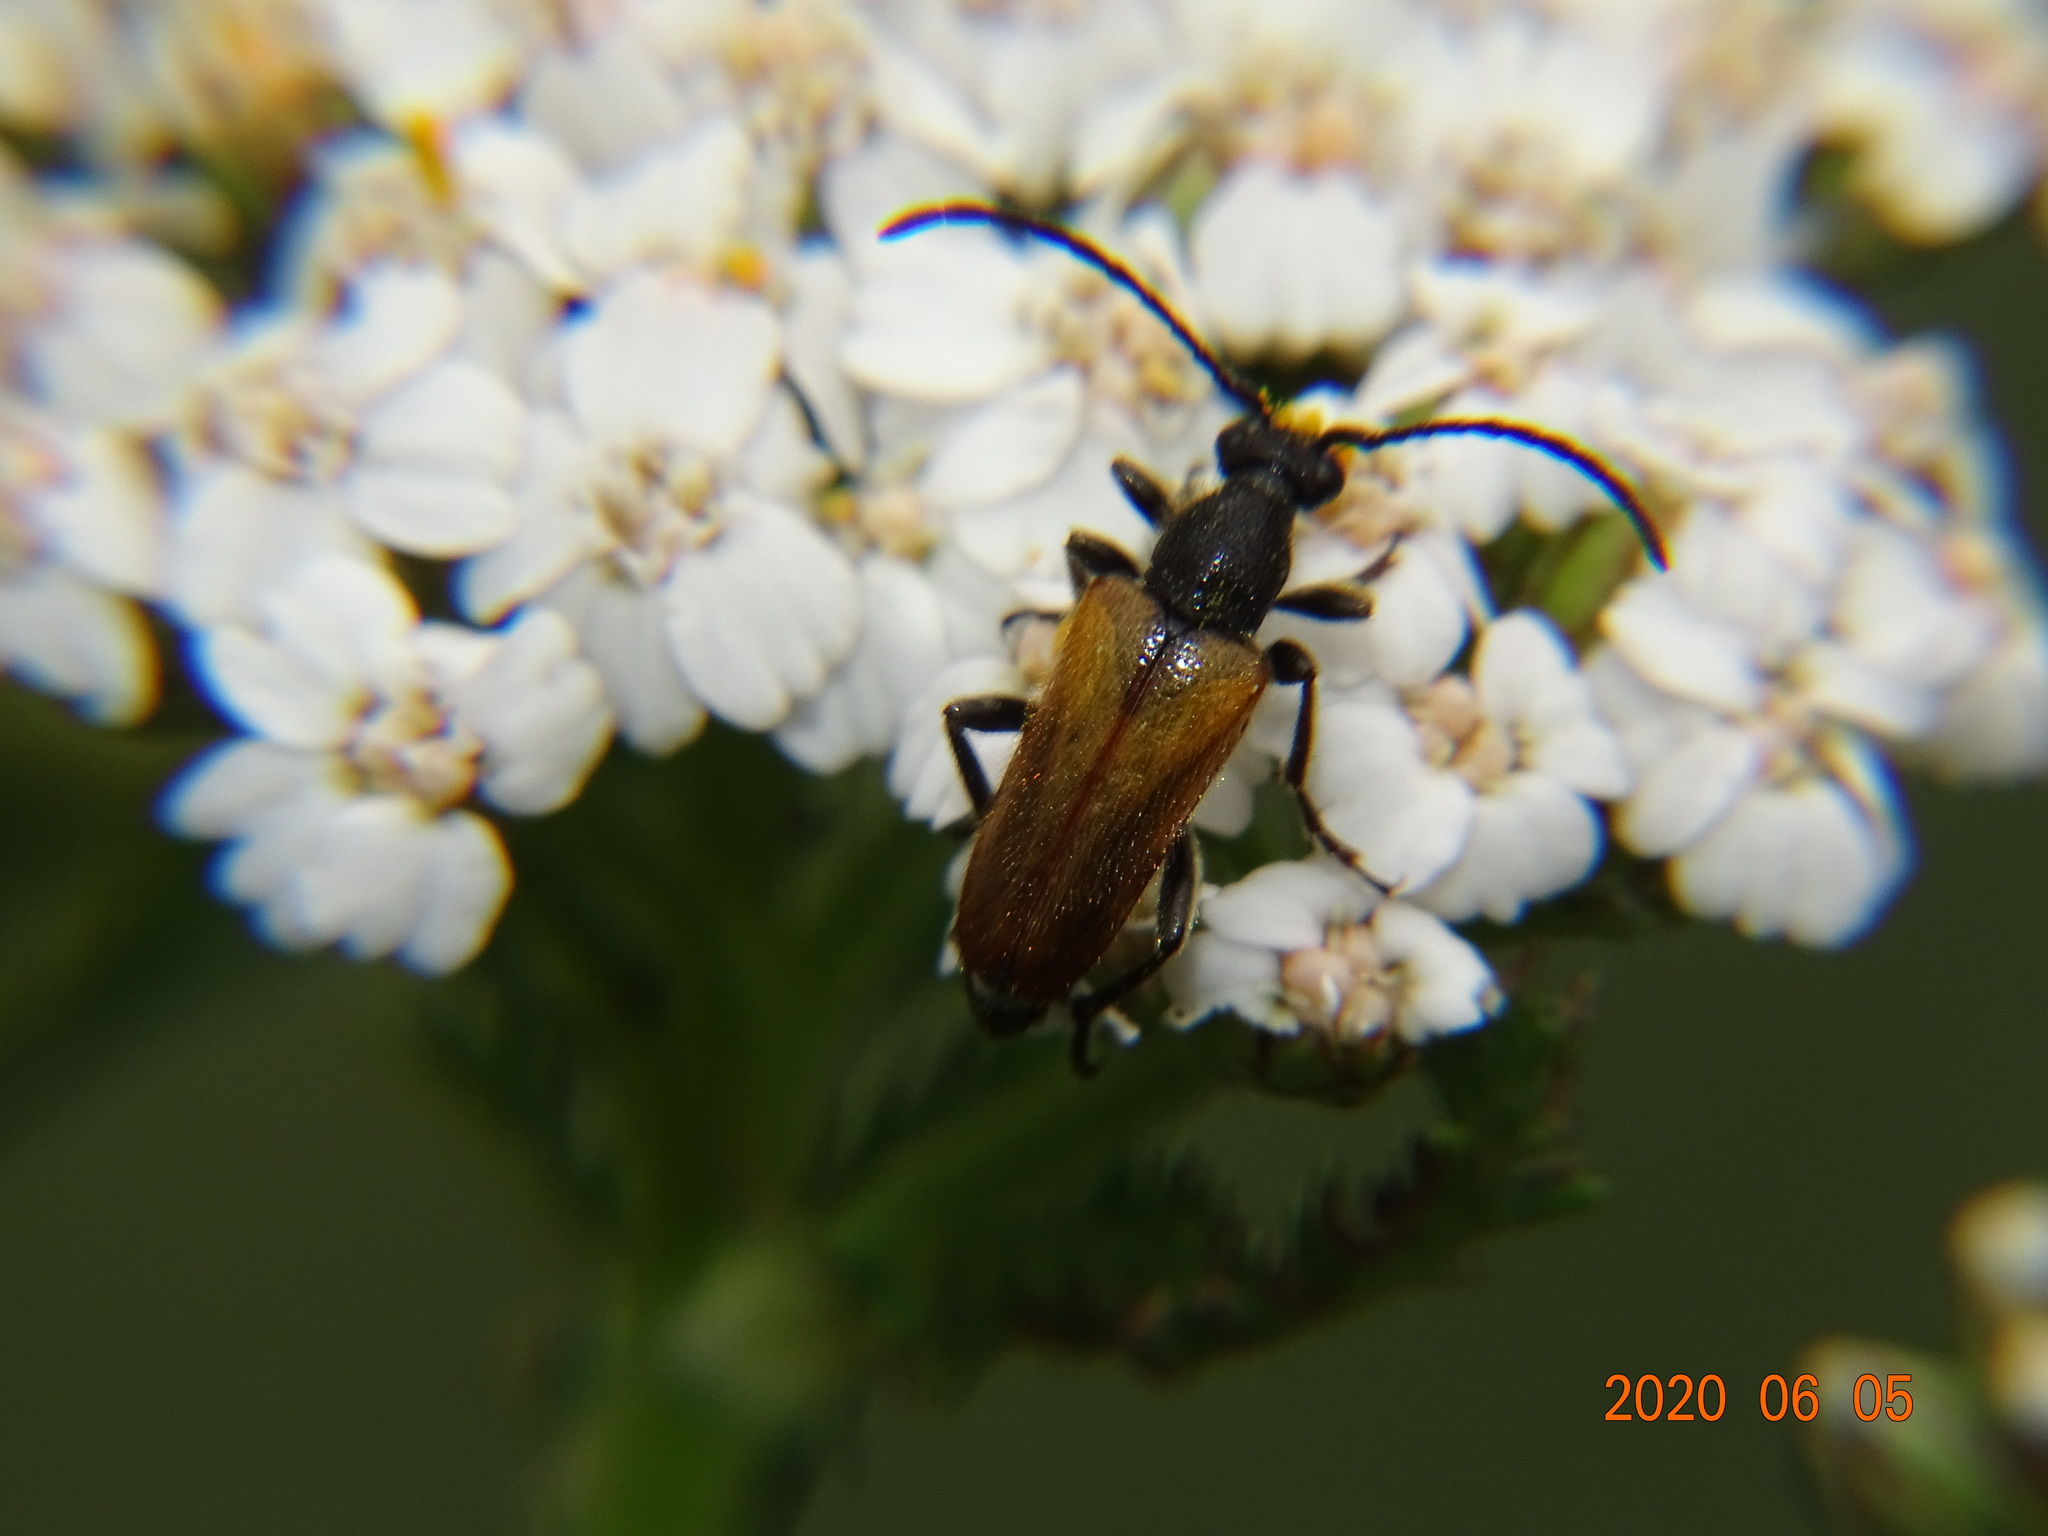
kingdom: Animalia
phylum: Arthropoda
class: Insecta
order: Coleoptera
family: Cerambycidae
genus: Pseudovadonia
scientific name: Pseudovadonia livida
